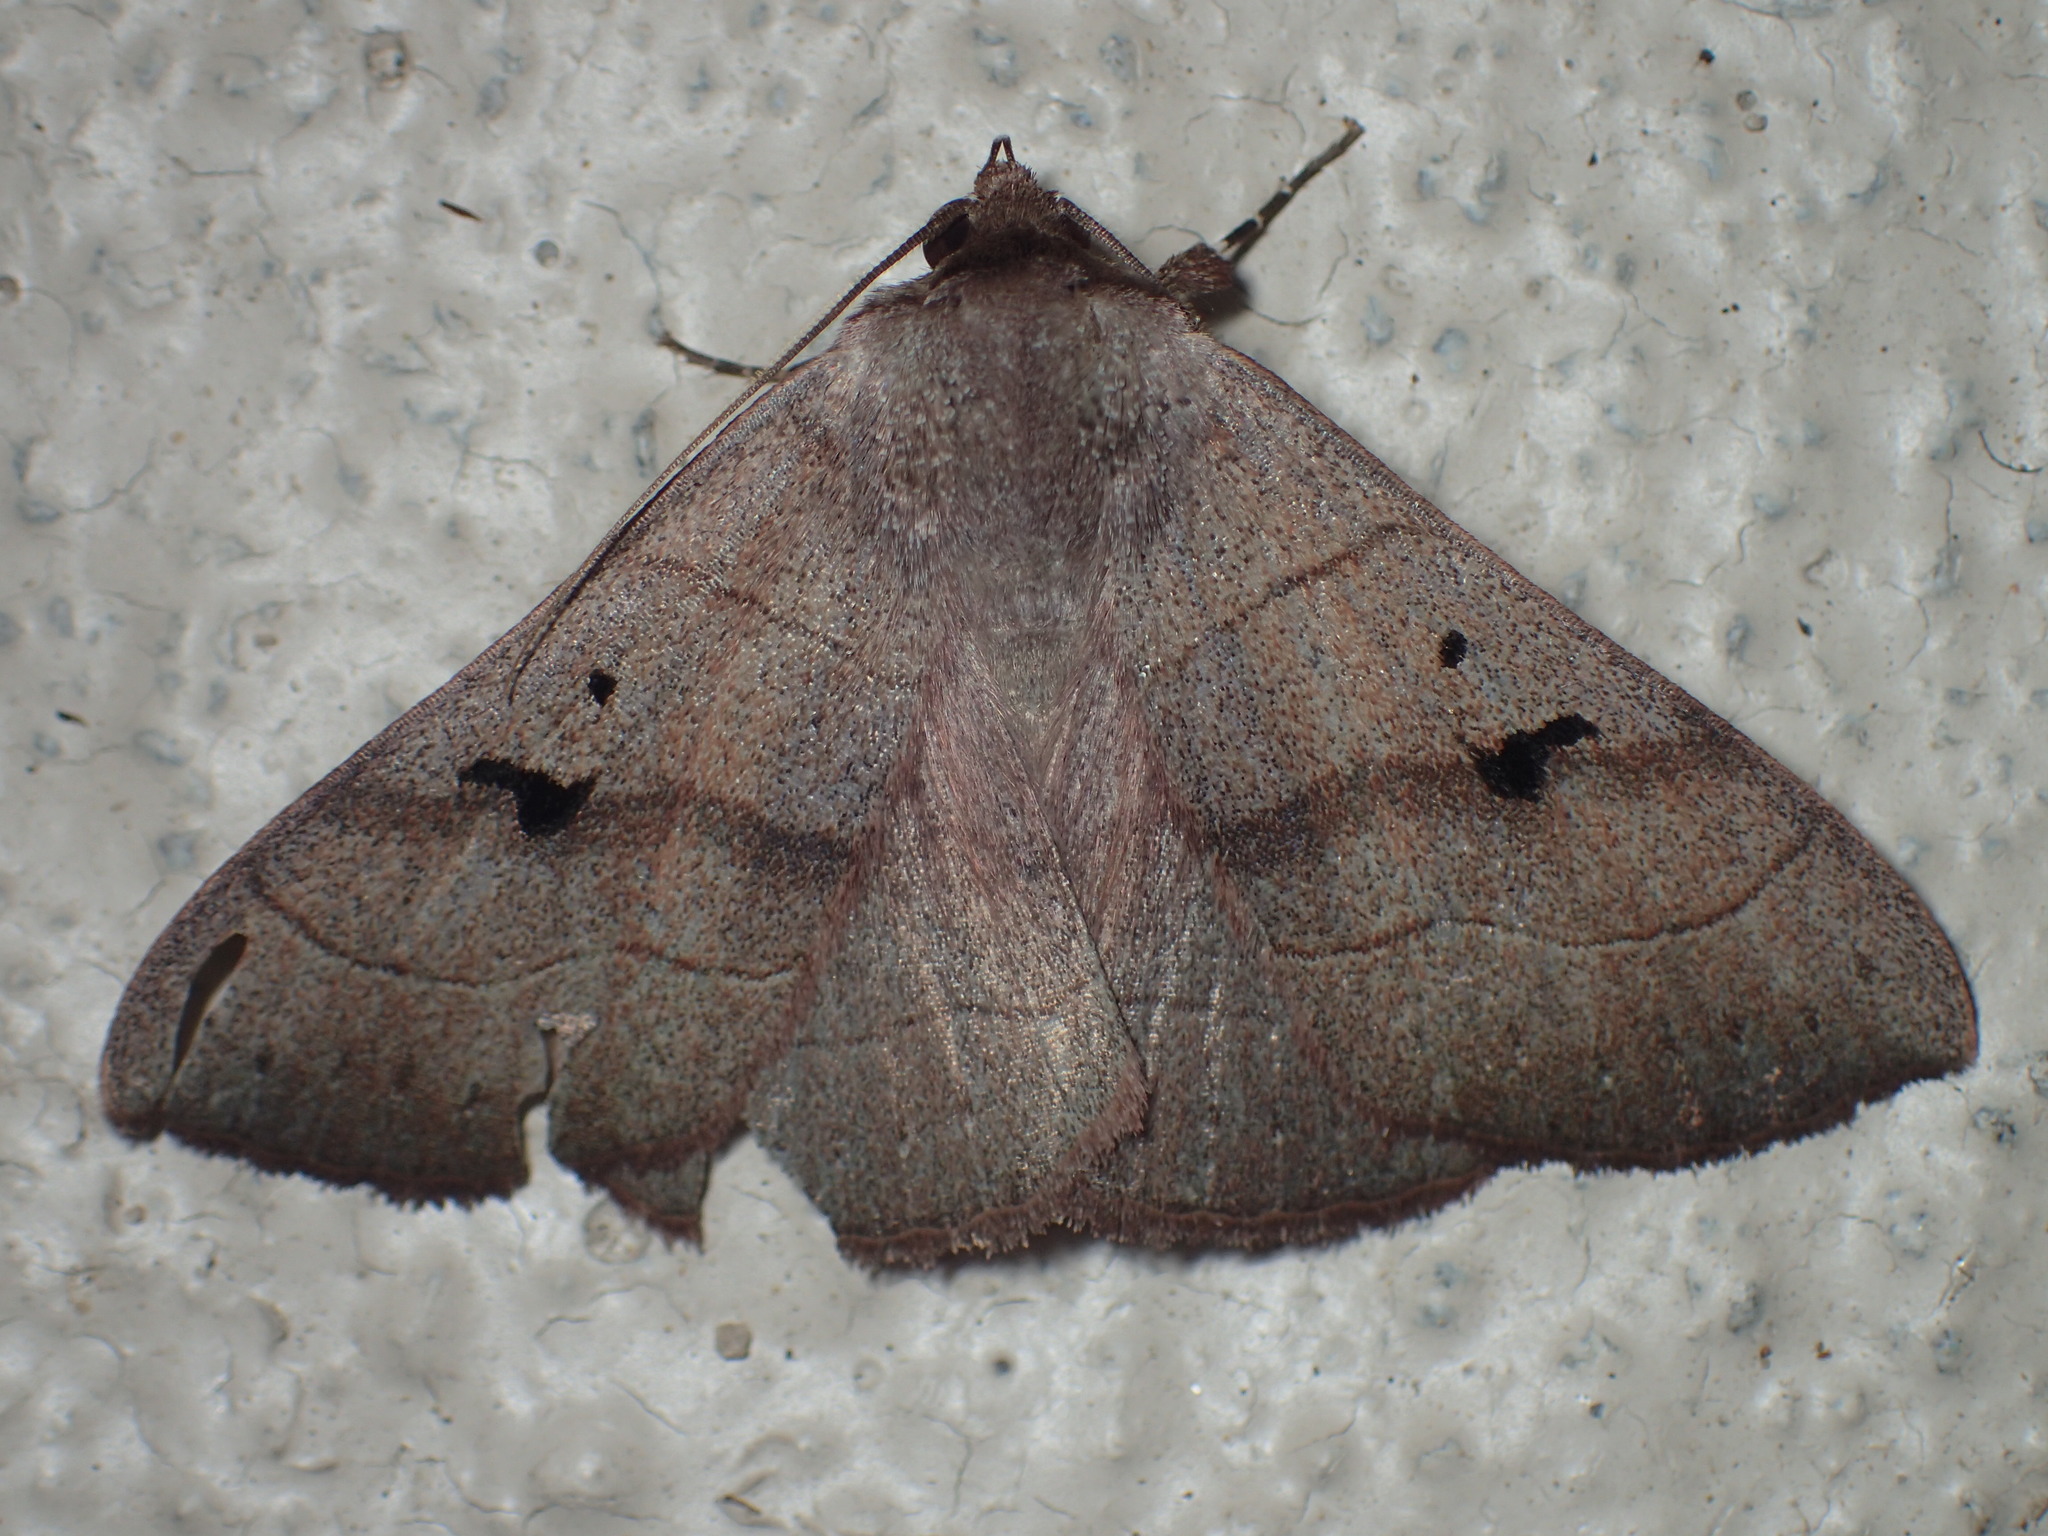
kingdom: Animalia
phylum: Arthropoda
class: Insecta
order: Lepidoptera
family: Erebidae
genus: Panopoda
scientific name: Panopoda carneicosta
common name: Brown panopoda moth
